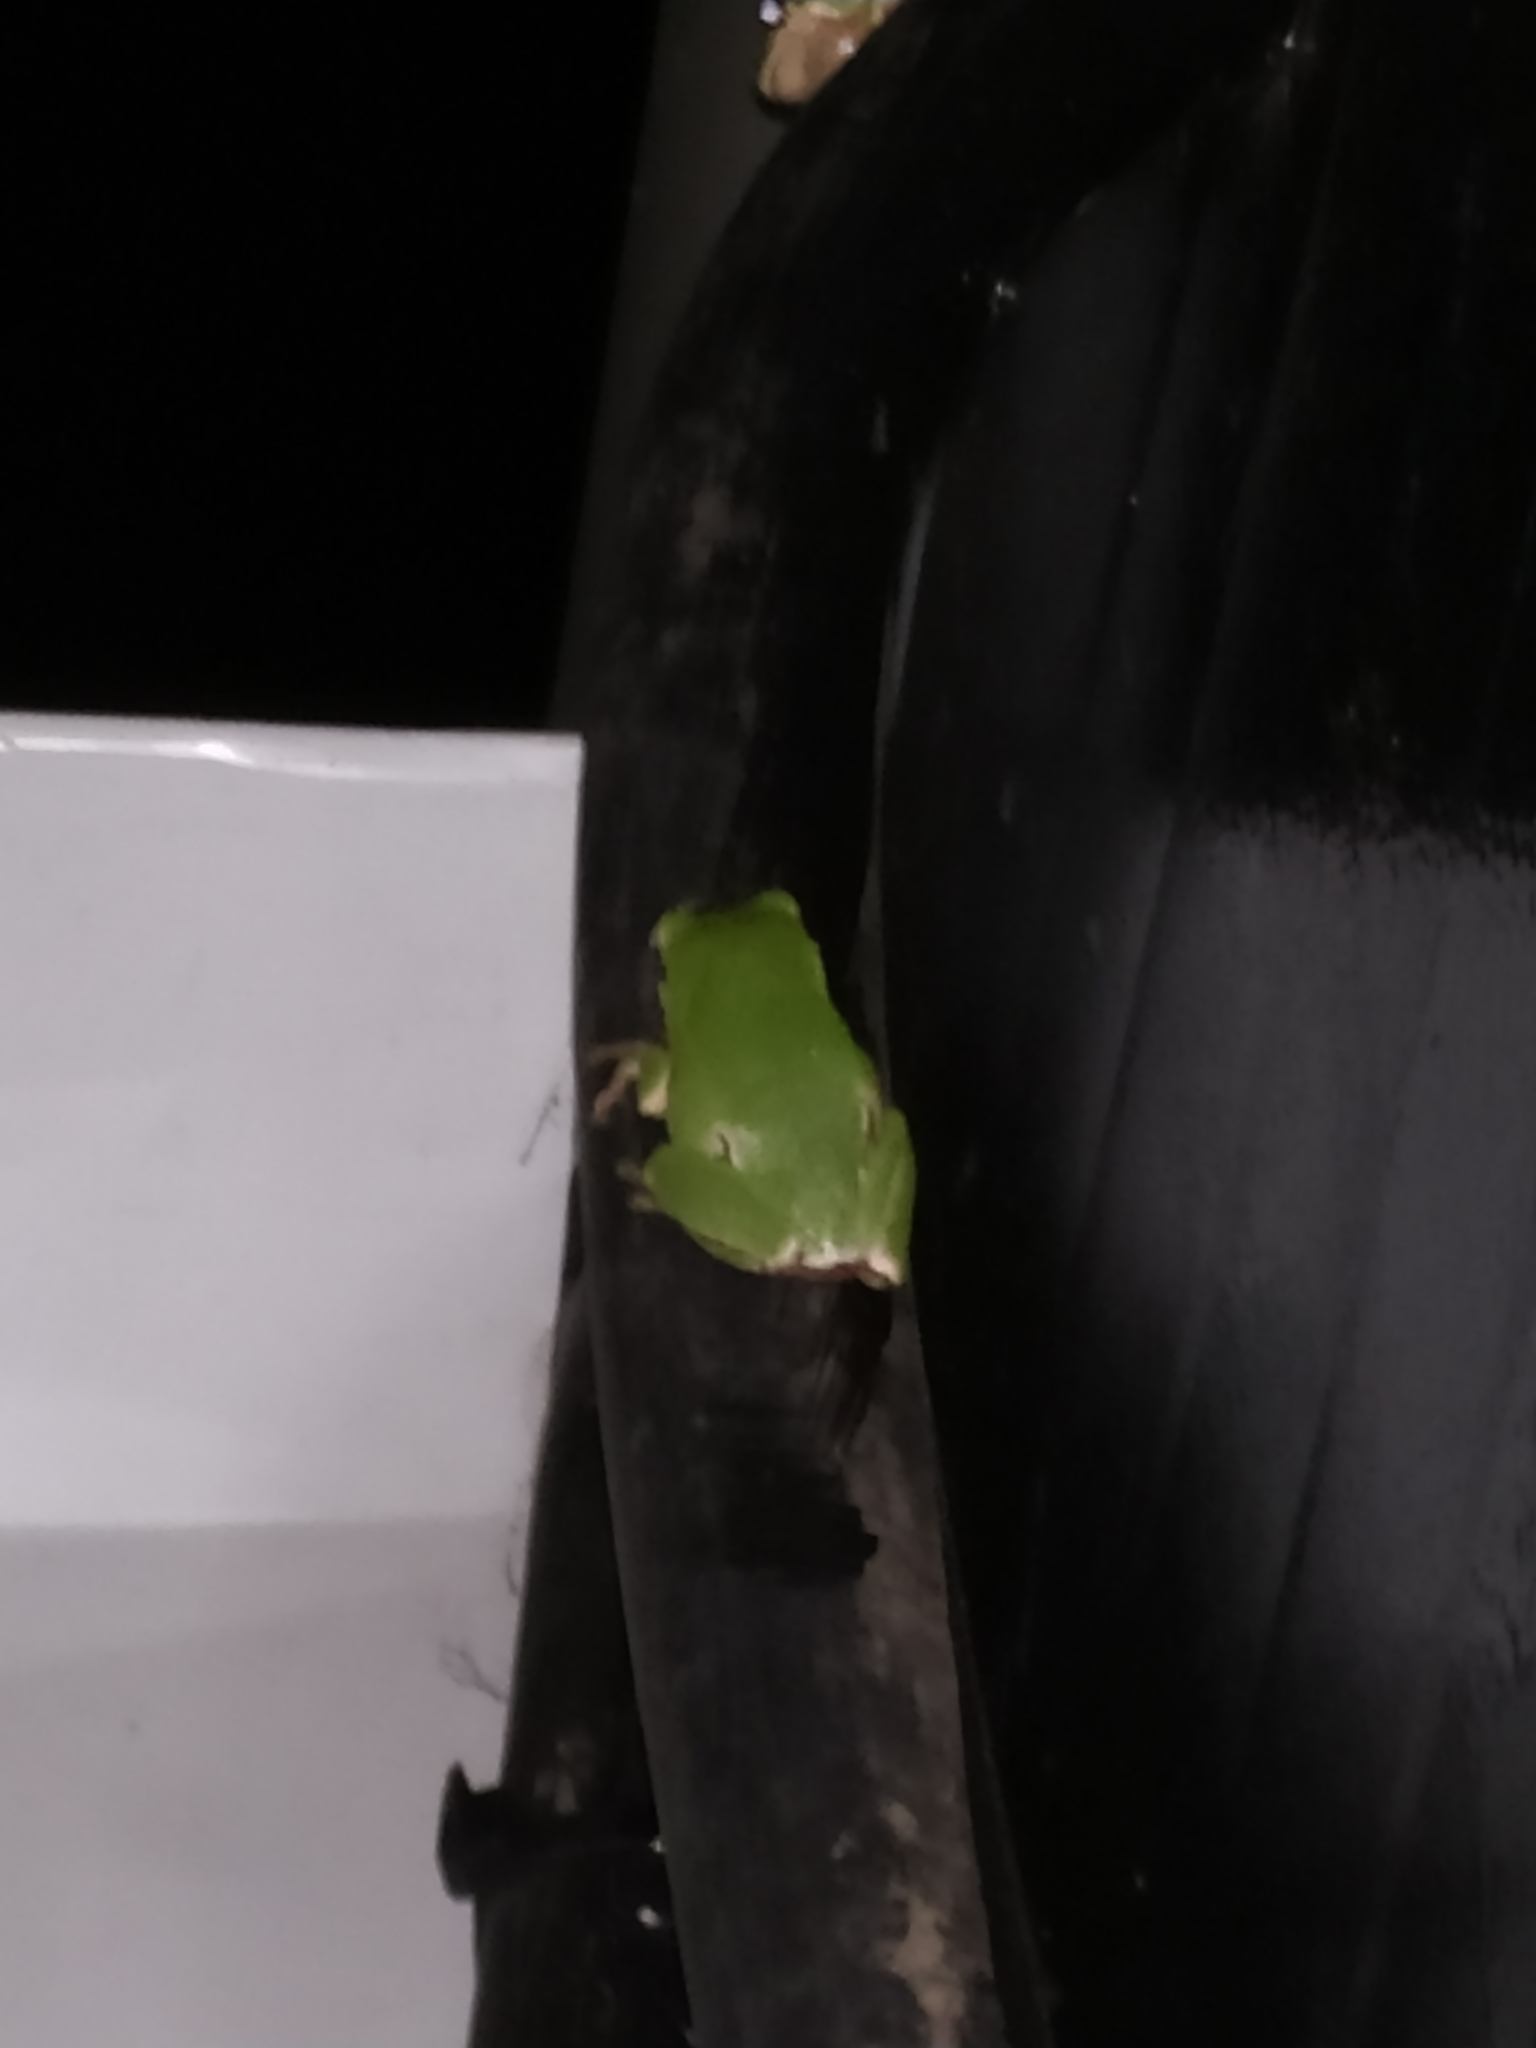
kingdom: Animalia
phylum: Chordata
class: Amphibia
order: Anura
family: Hylidae
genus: Hyla
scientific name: Hyla orientalis
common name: Caucasian treefrog
